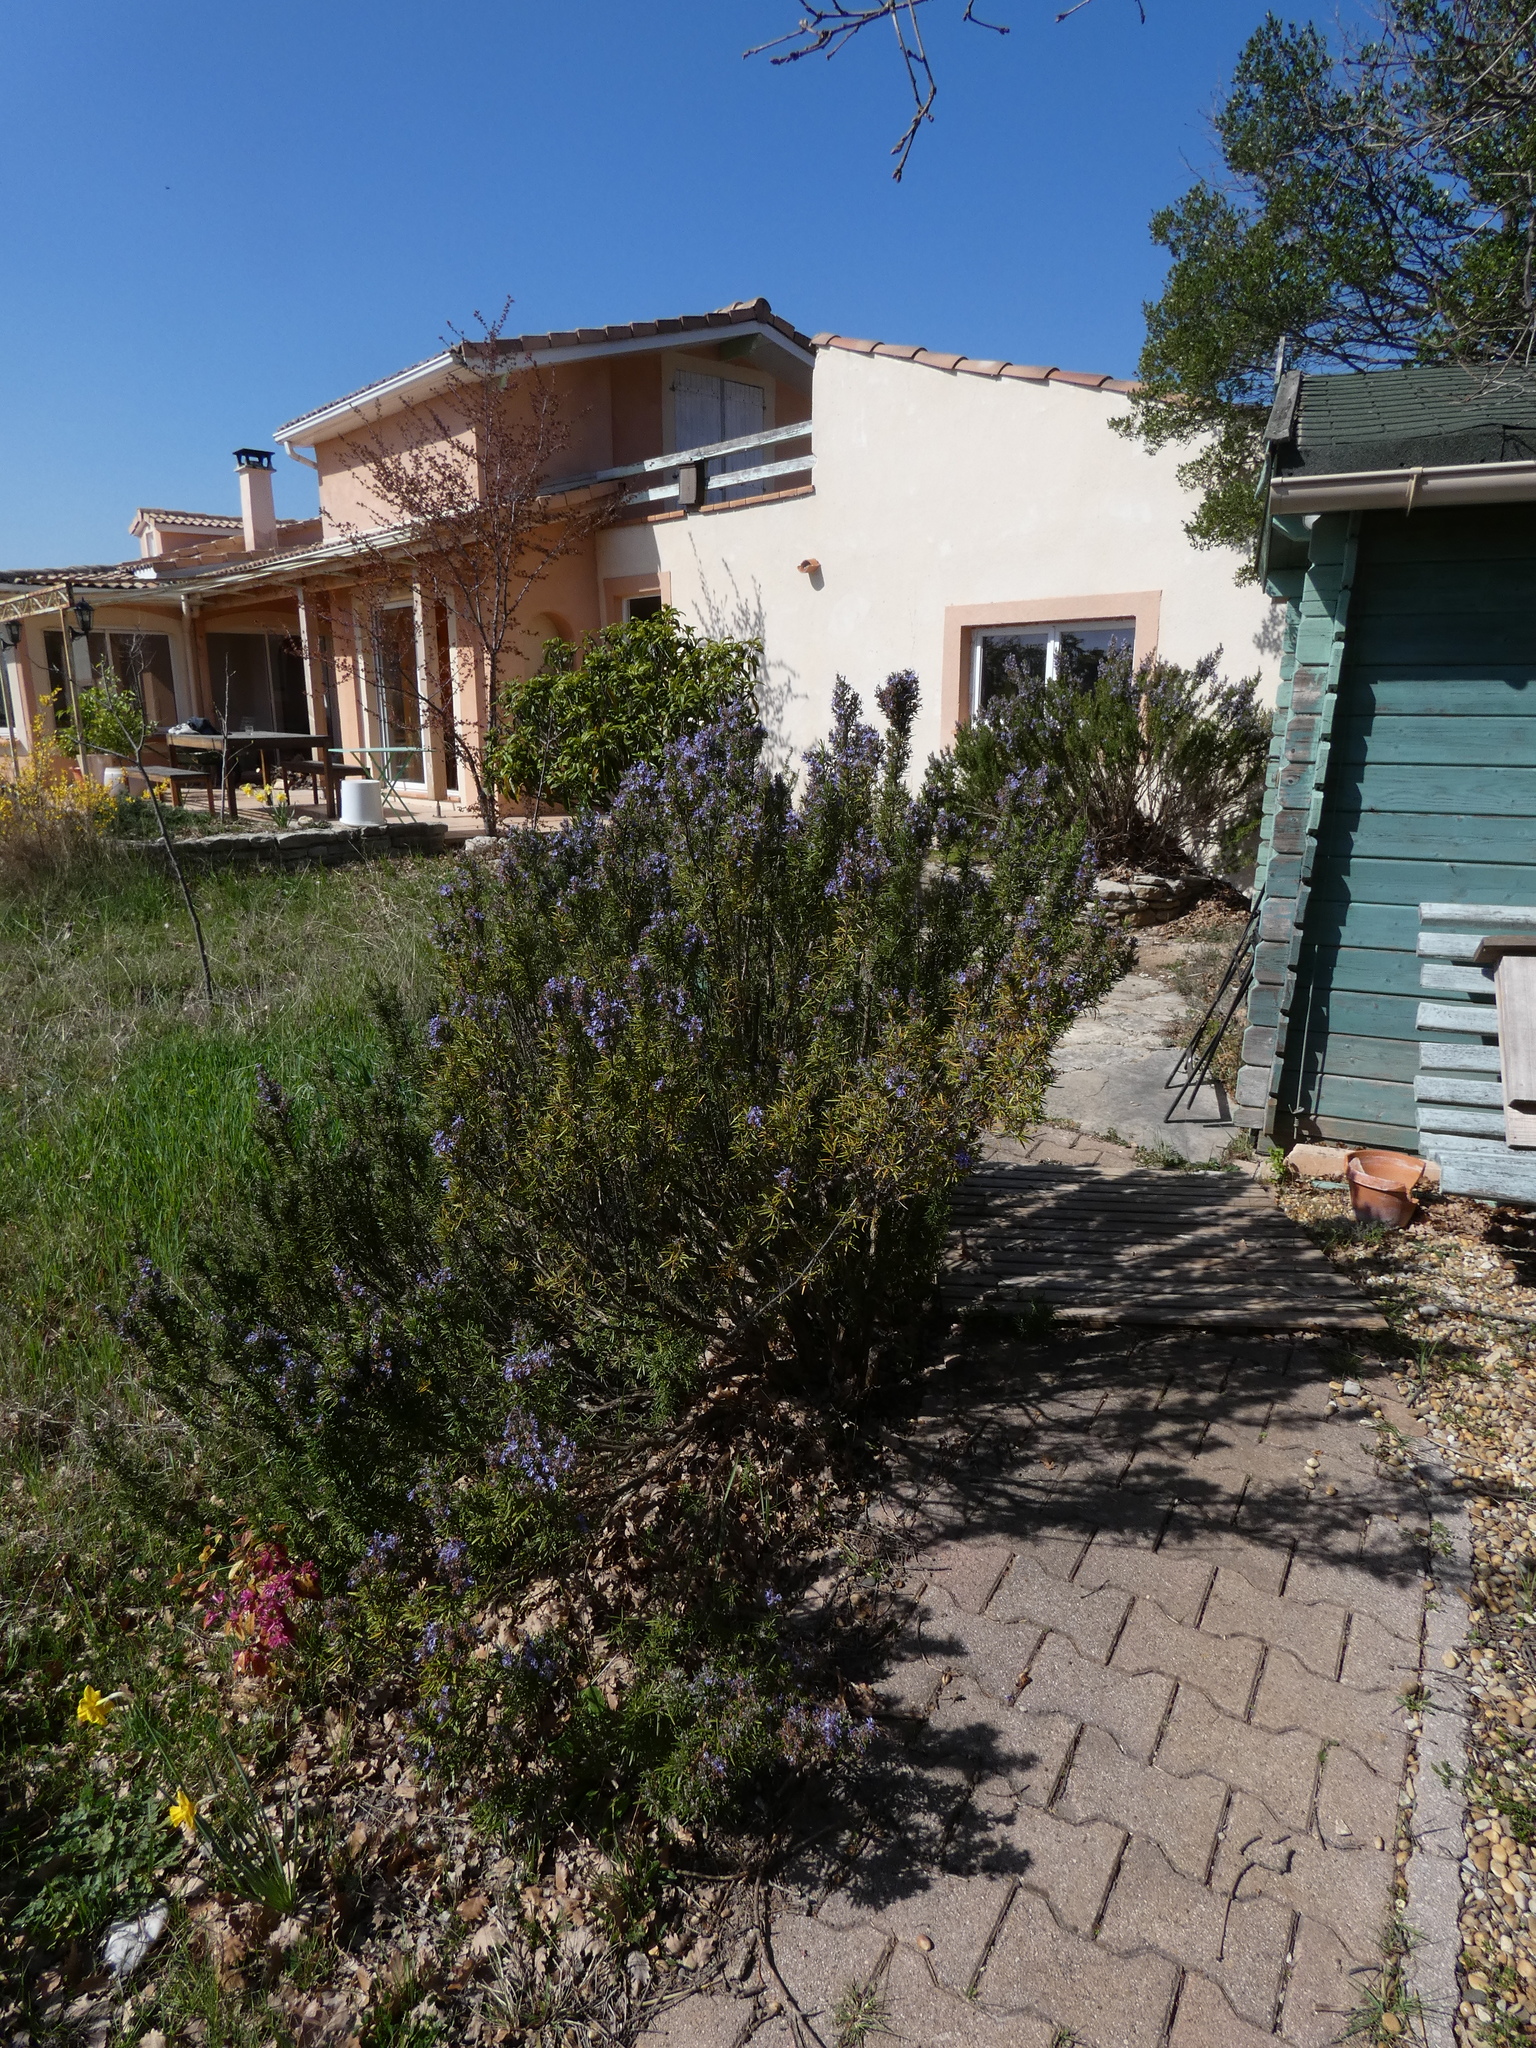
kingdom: Plantae
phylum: Tracheophyta
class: Magnoliopsida
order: Lamiales
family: Lamiaceae
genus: Salvia
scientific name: Salvia rosmarinus
